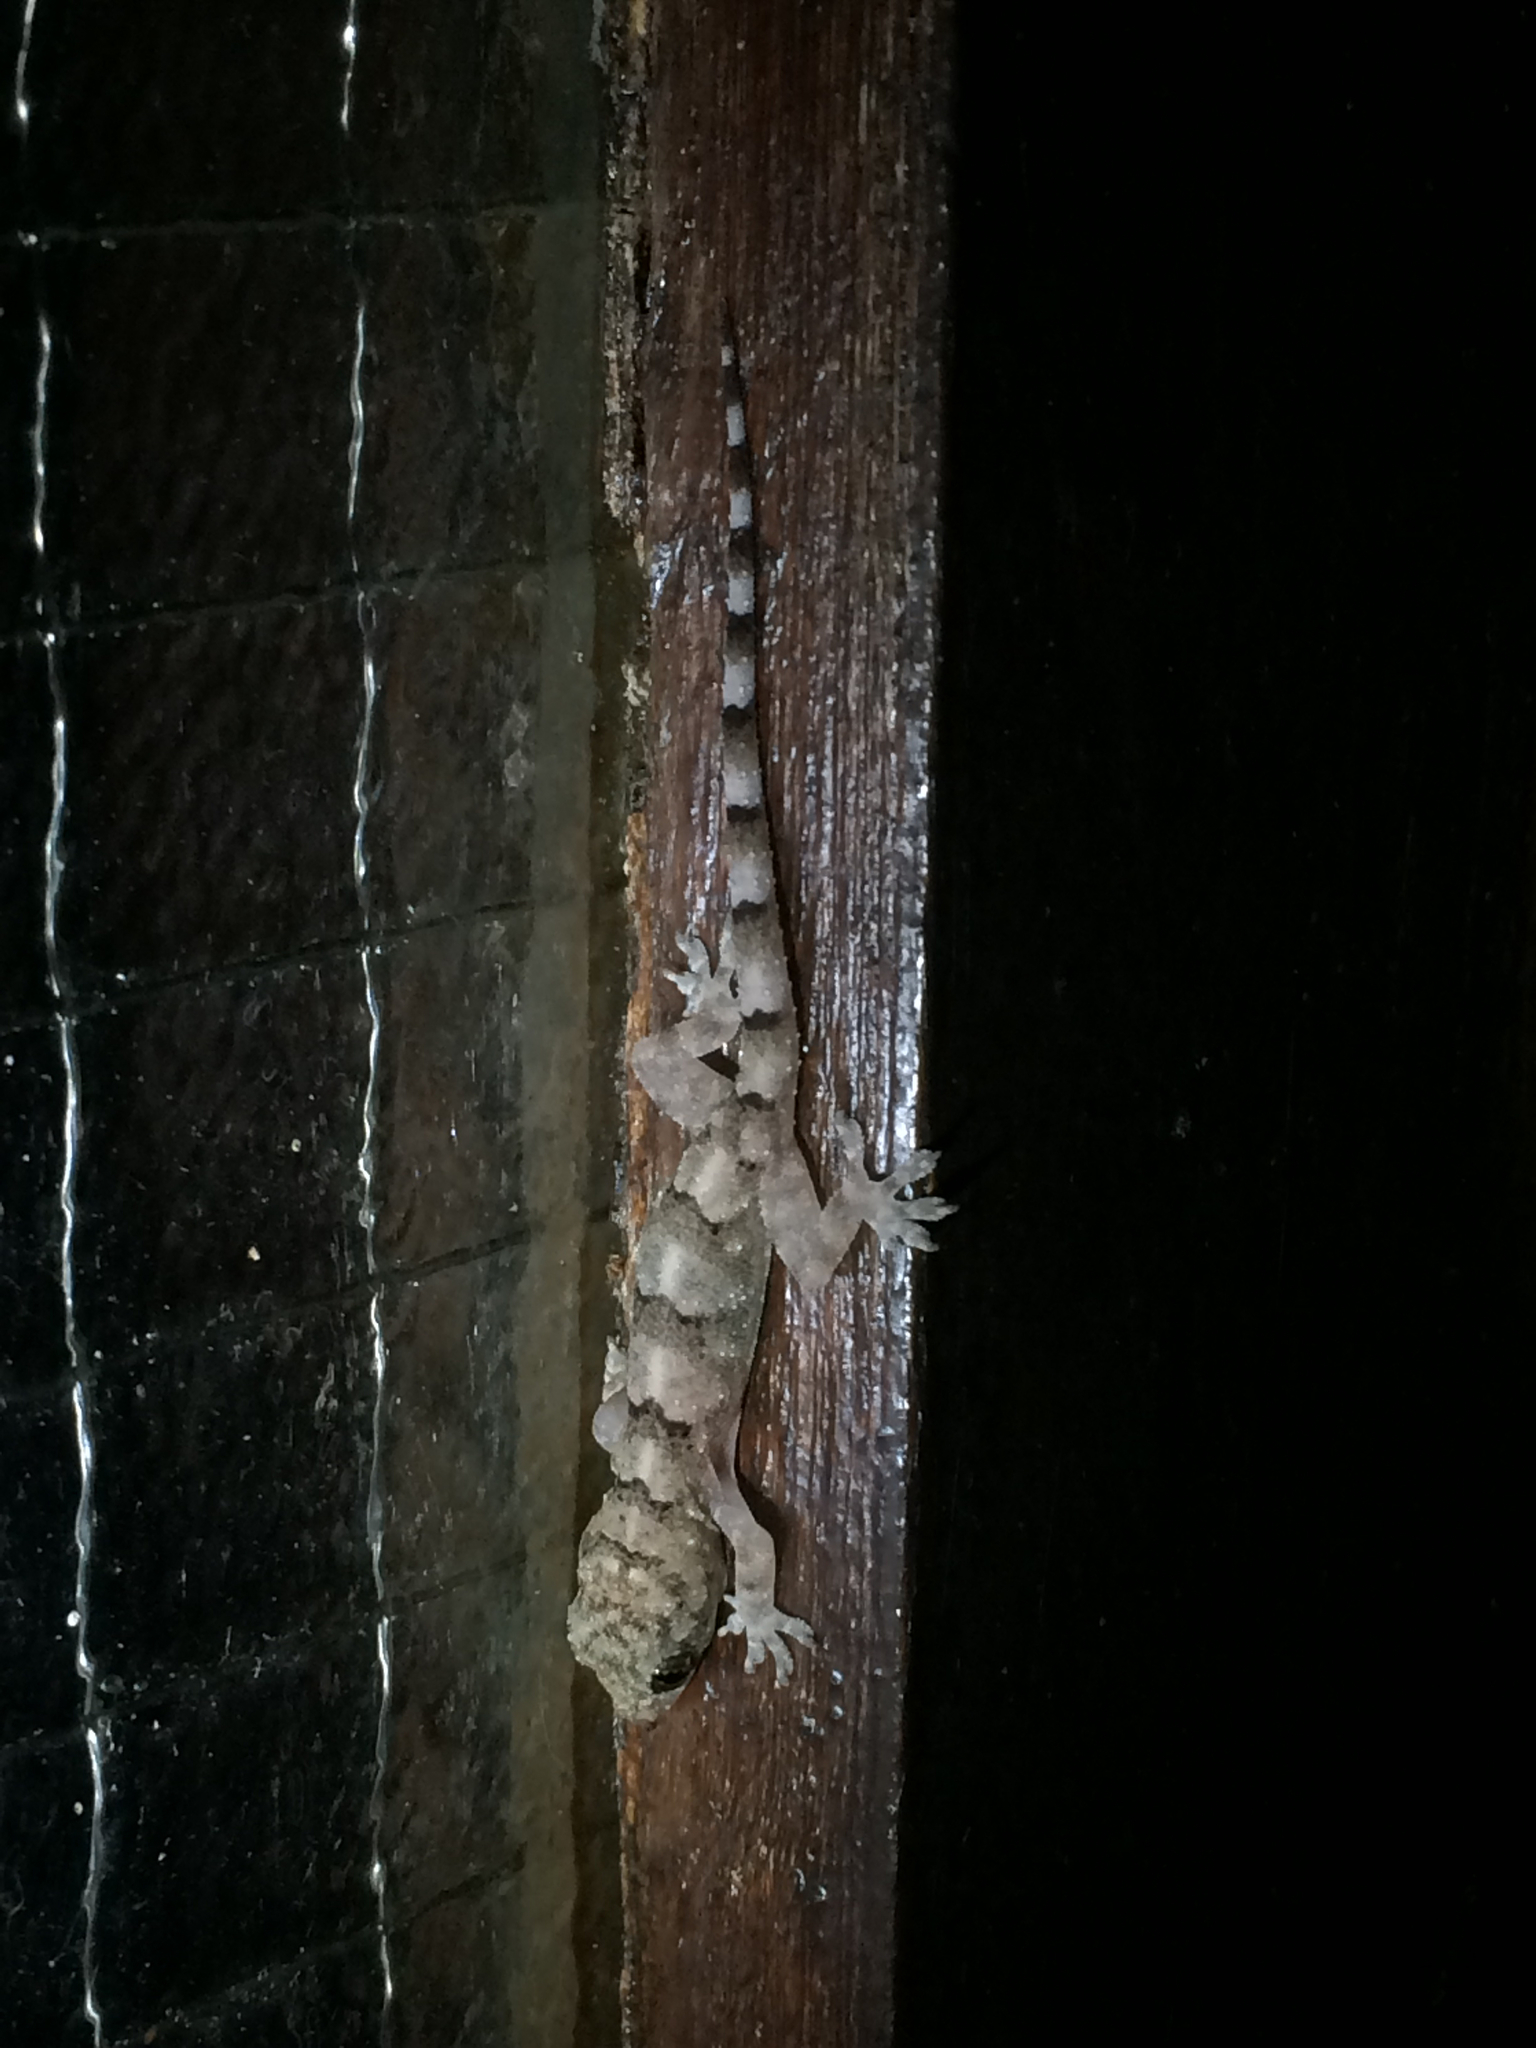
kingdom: Animalia
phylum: Chordata
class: Squamata
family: Gekkonidae
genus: Hemidactylus
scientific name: Hemidactylus mabouia
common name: House gecko
